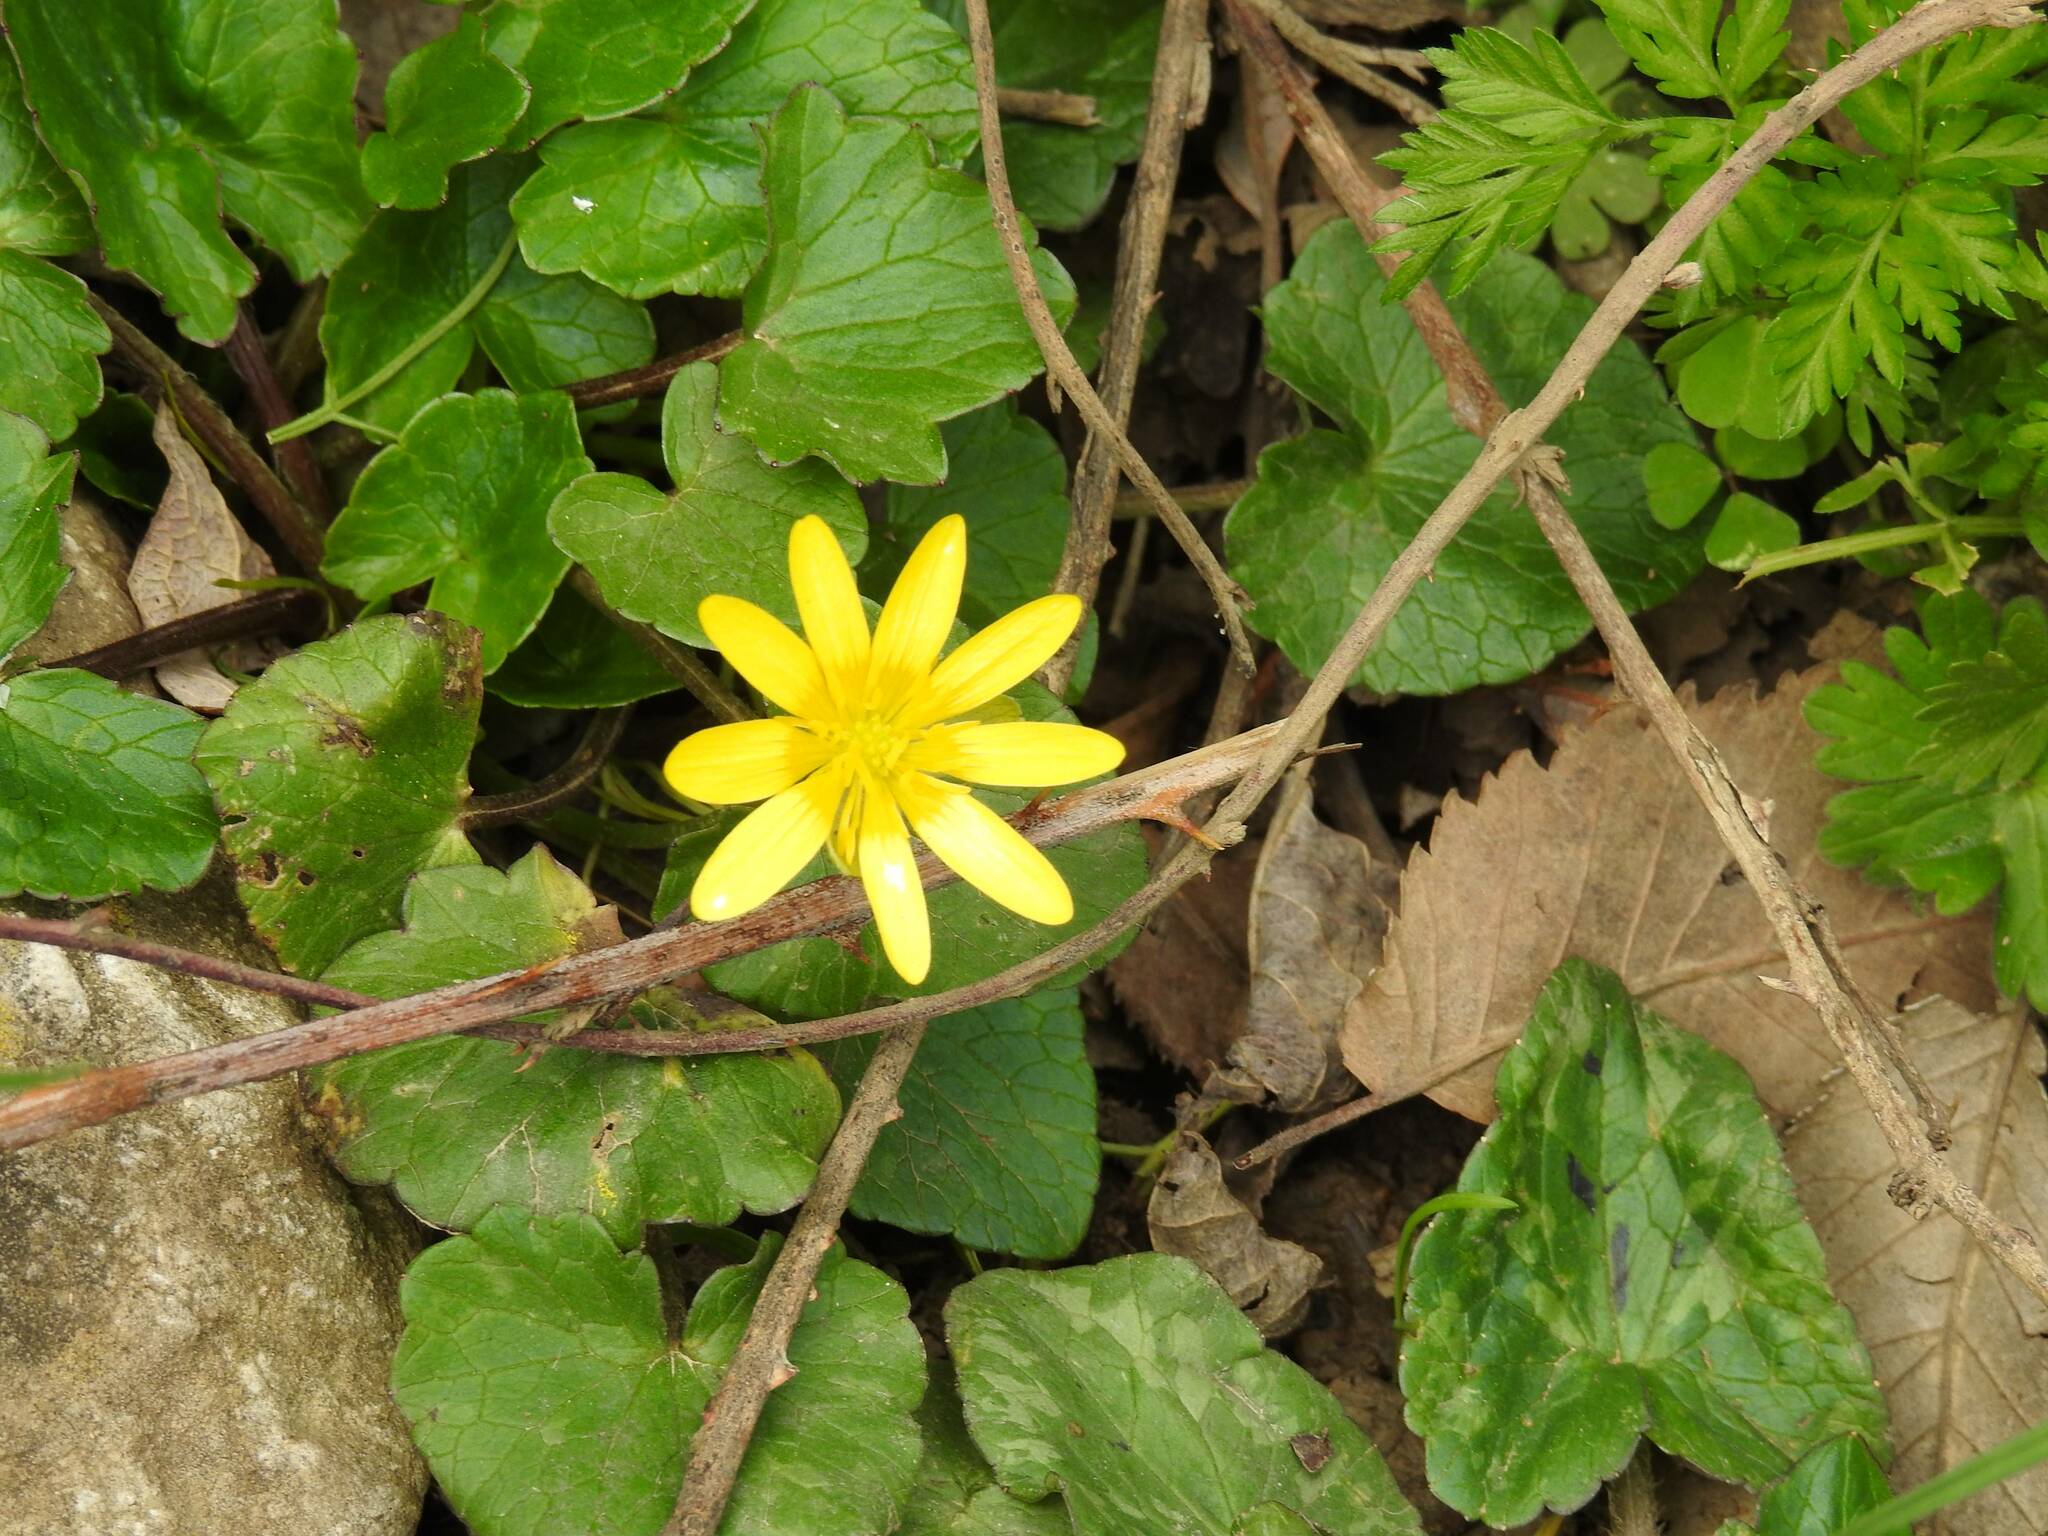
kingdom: Plantae
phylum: Tracheophyta
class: Magnoliopsida
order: Ranunculales
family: Ranunculaceae
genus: Ficaria
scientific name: Ficaria verna
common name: Lesser celandine
